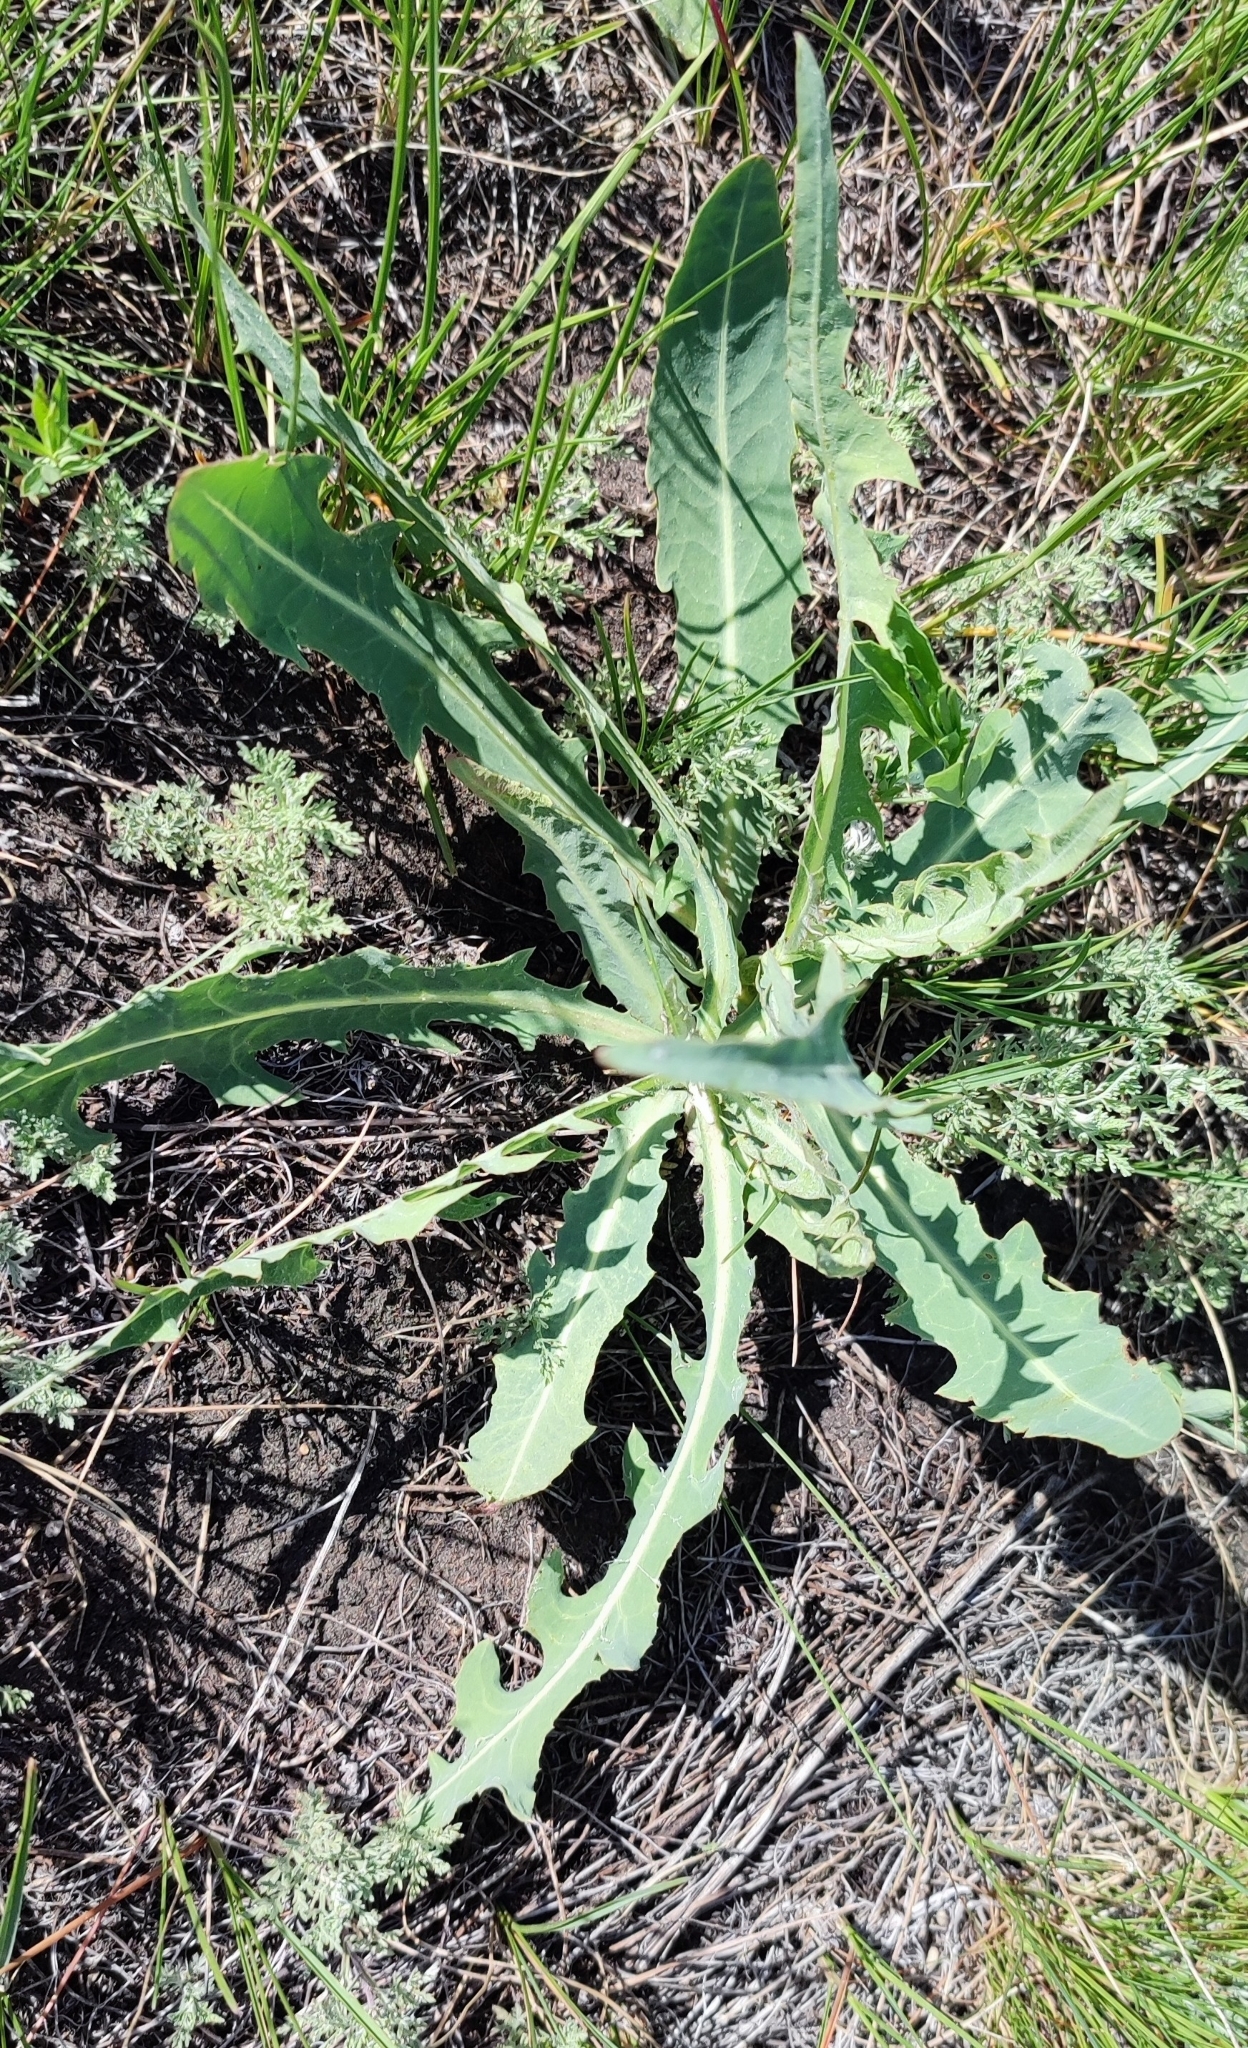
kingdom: Plantae
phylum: Tracheophyta
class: Magnoliopsida
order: Asterales
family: Asteraceae
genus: Lactuca
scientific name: Lactuca tatarica
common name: Blue lettuce
